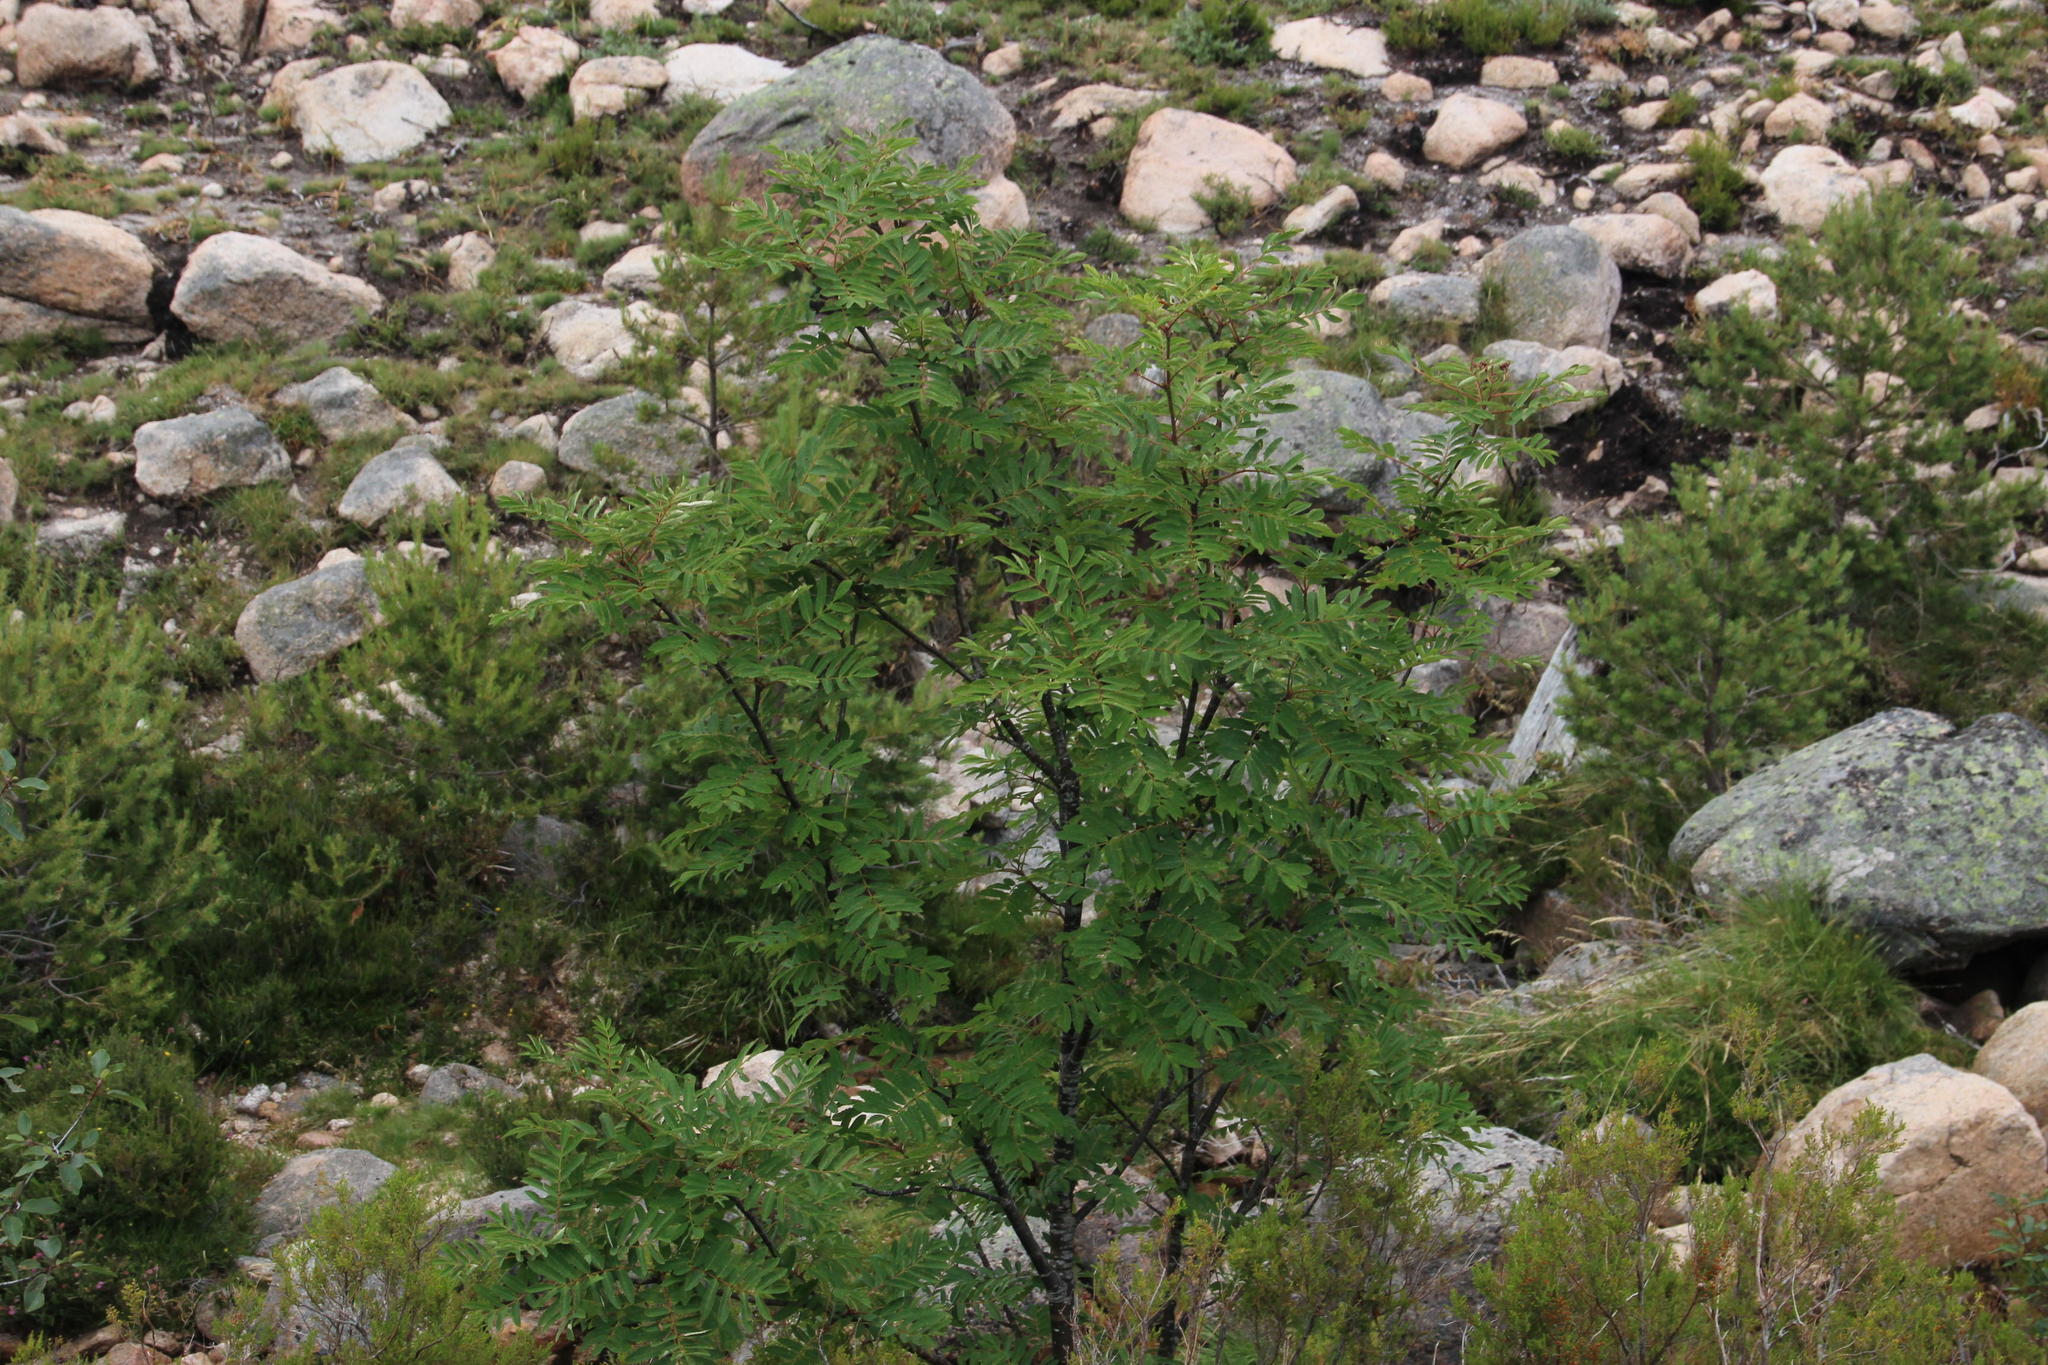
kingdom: Plantae
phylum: Tracheophyta
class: Magnoliopsida
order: Rosales
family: Rosaceae
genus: Sorbus
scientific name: Sorbus aucuparia
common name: Rowan
